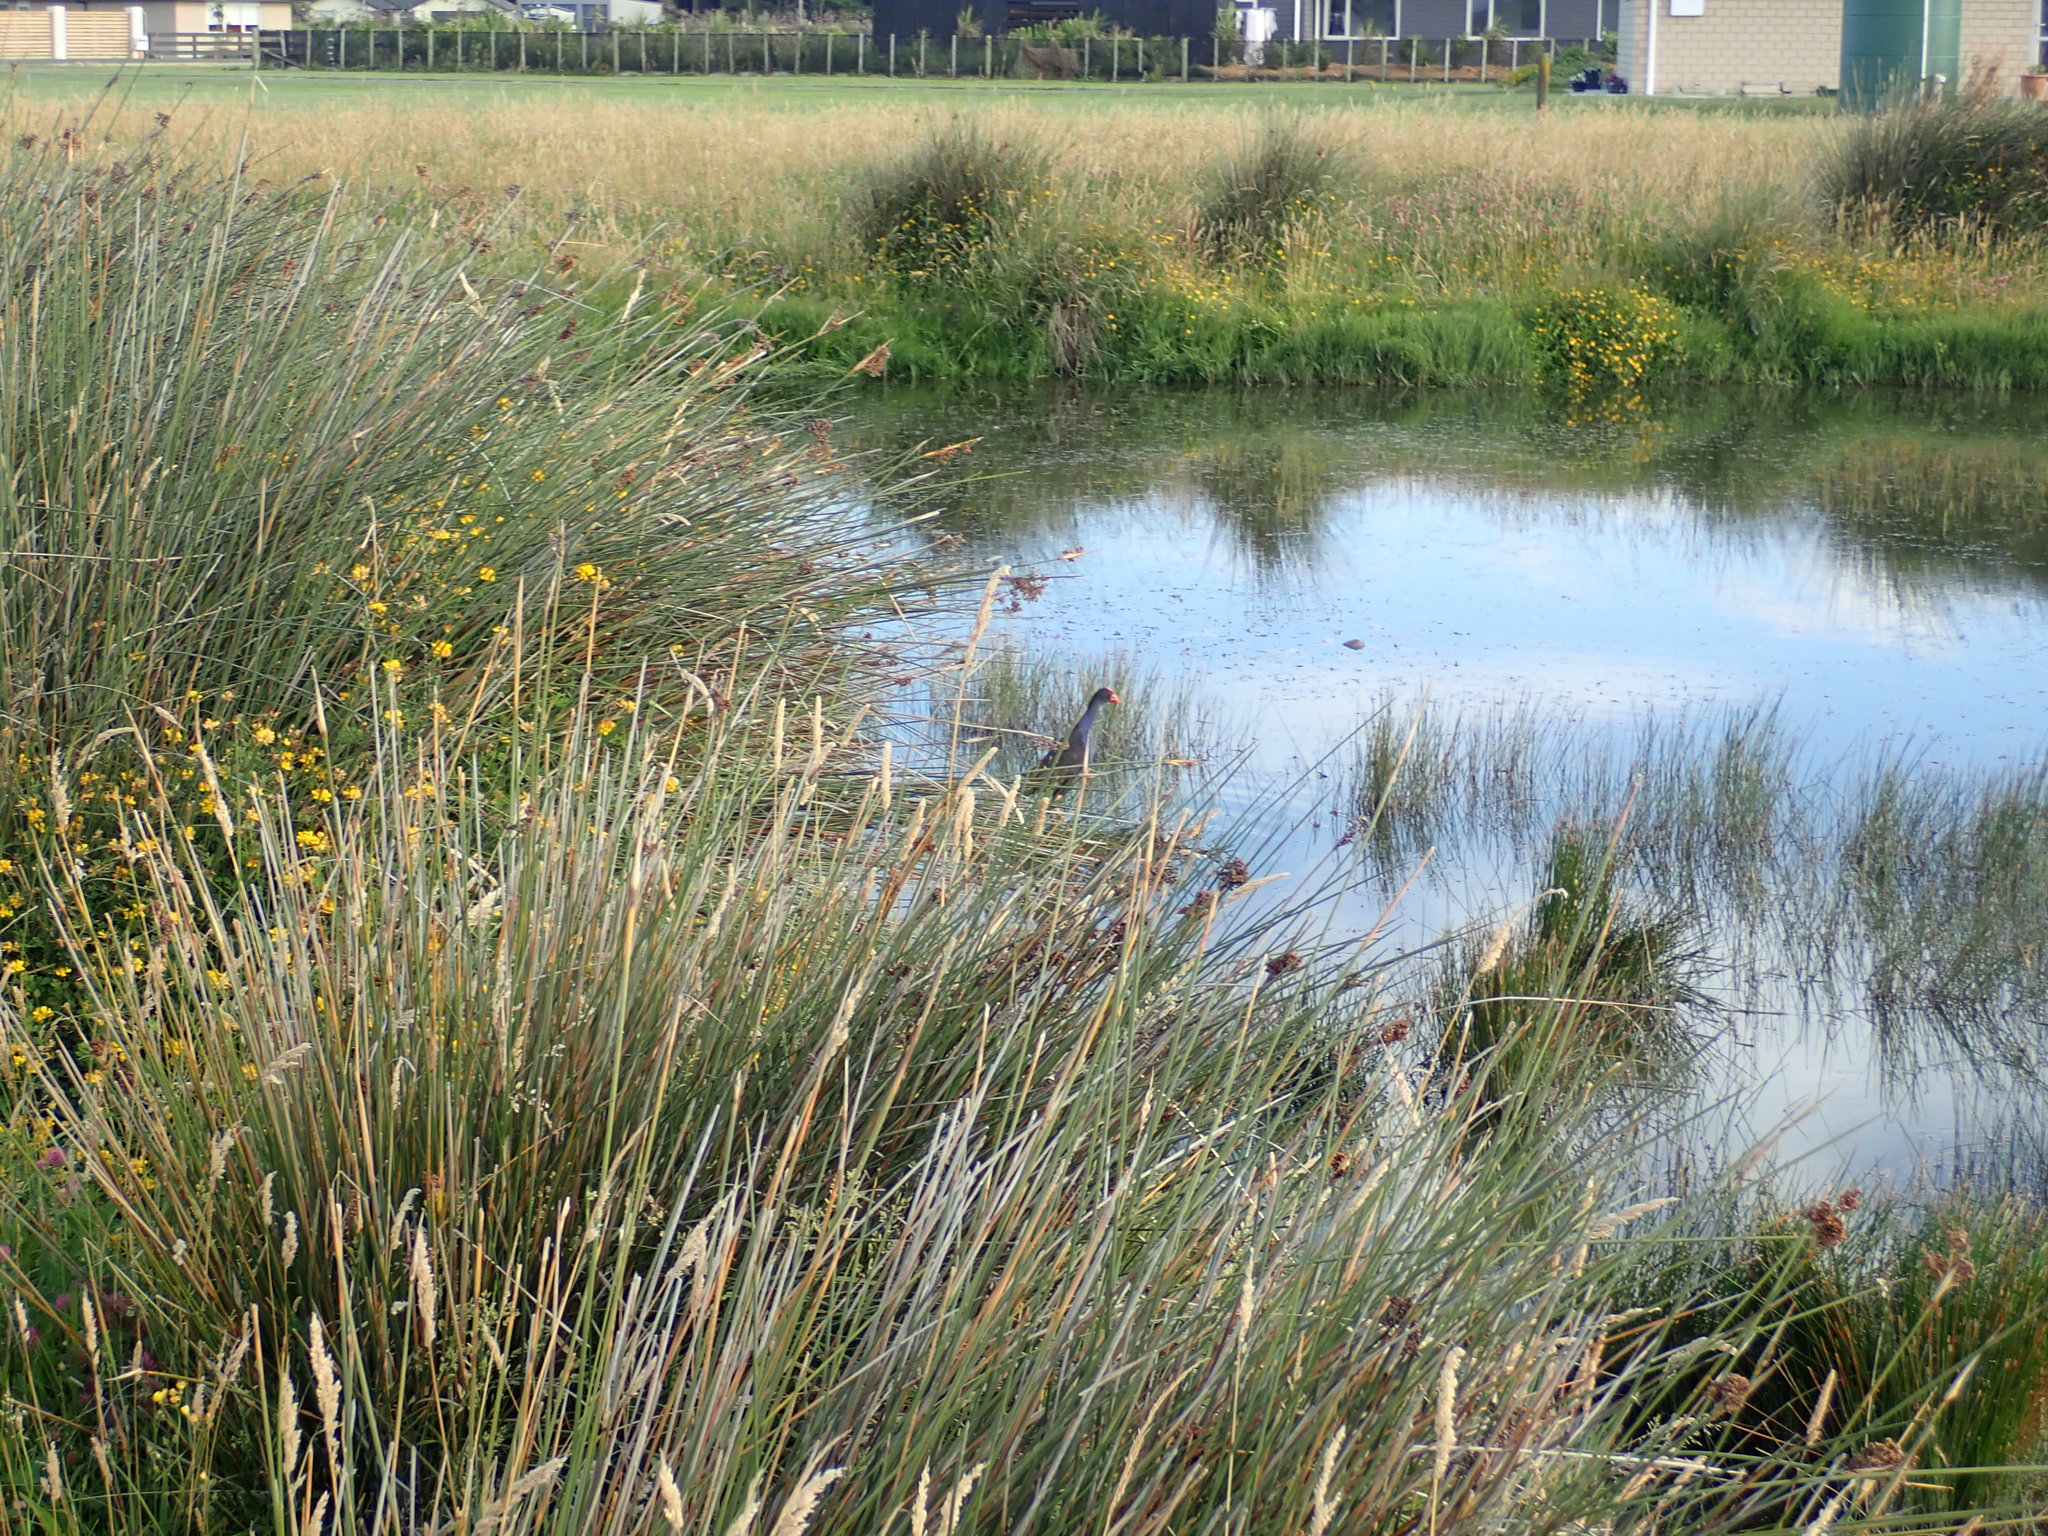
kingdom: Animalia
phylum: Chordata
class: Aves
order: Gruiformes
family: Rallidae
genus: Porphyrio
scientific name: Porphyrio melanotus
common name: Australasian swamphen
